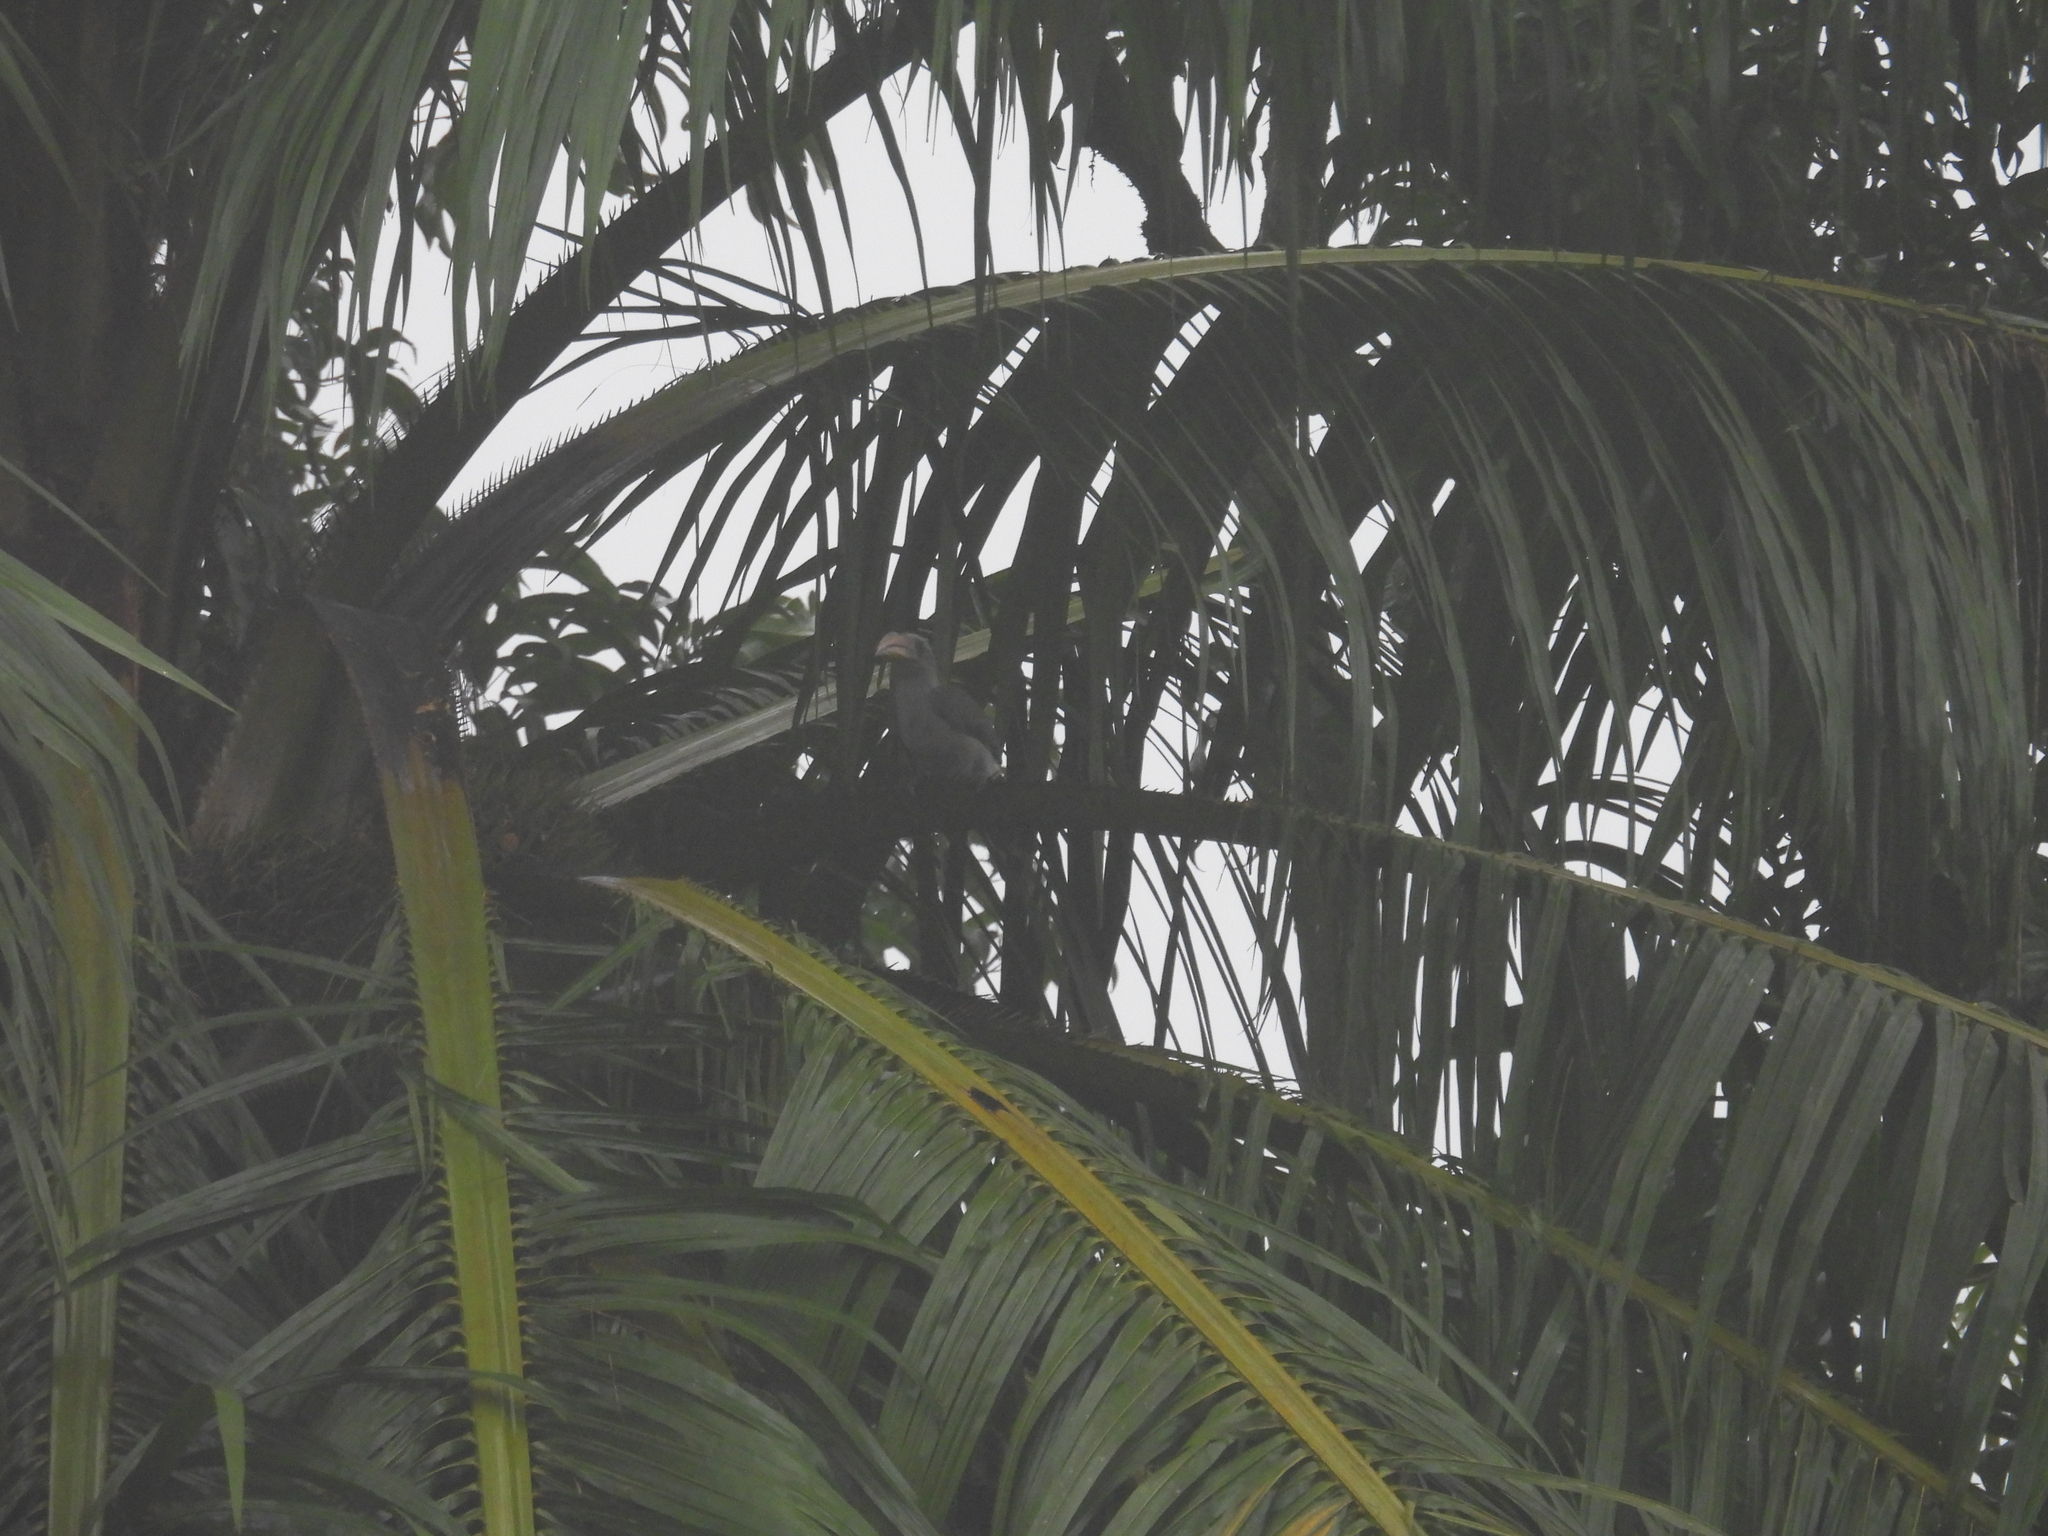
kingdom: Animalia
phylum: Chordata
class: Aves
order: Bucerotiformes
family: Bucerotidae
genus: Ocyceros
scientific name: Ocyceros griseus
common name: Malabar grey hornbill
